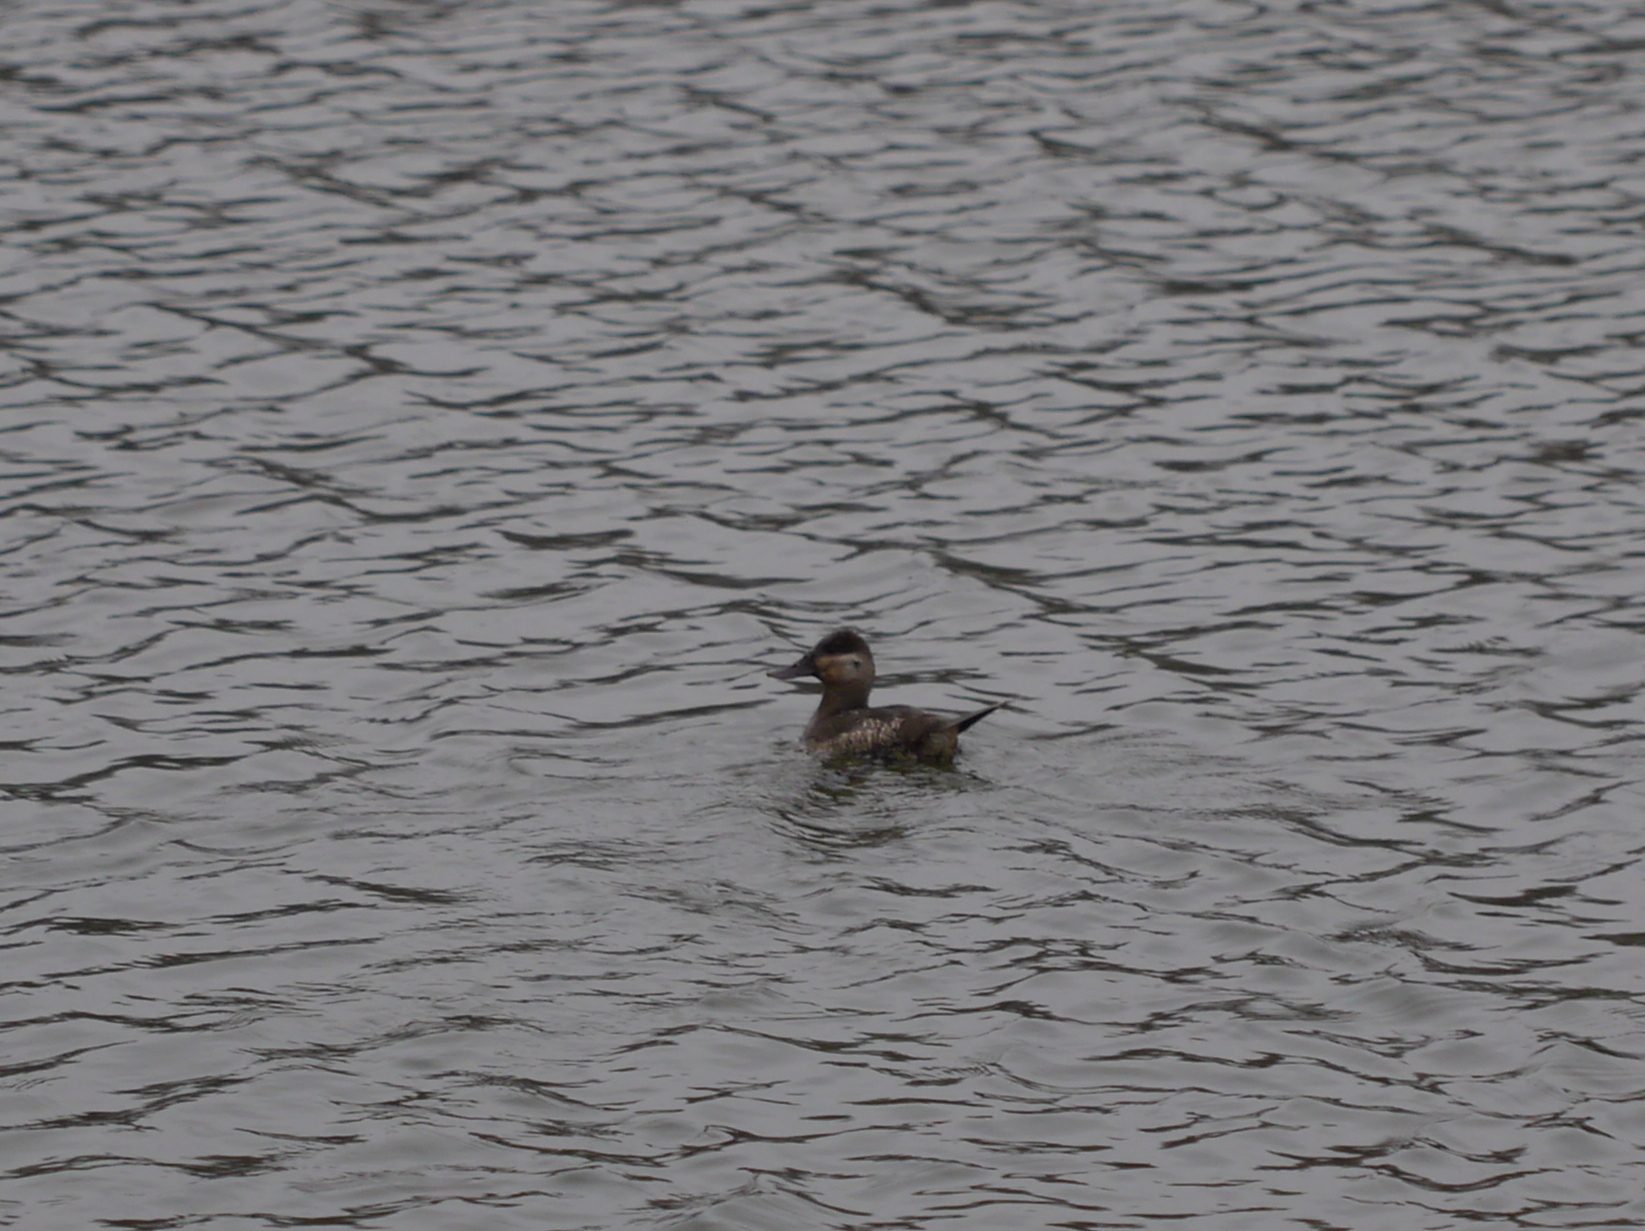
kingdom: Animalia
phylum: Chordata
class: Aves
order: Anseriformes
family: Anatidae
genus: Oxyura
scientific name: Oxyura jamaicensis
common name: Ruddy duck
